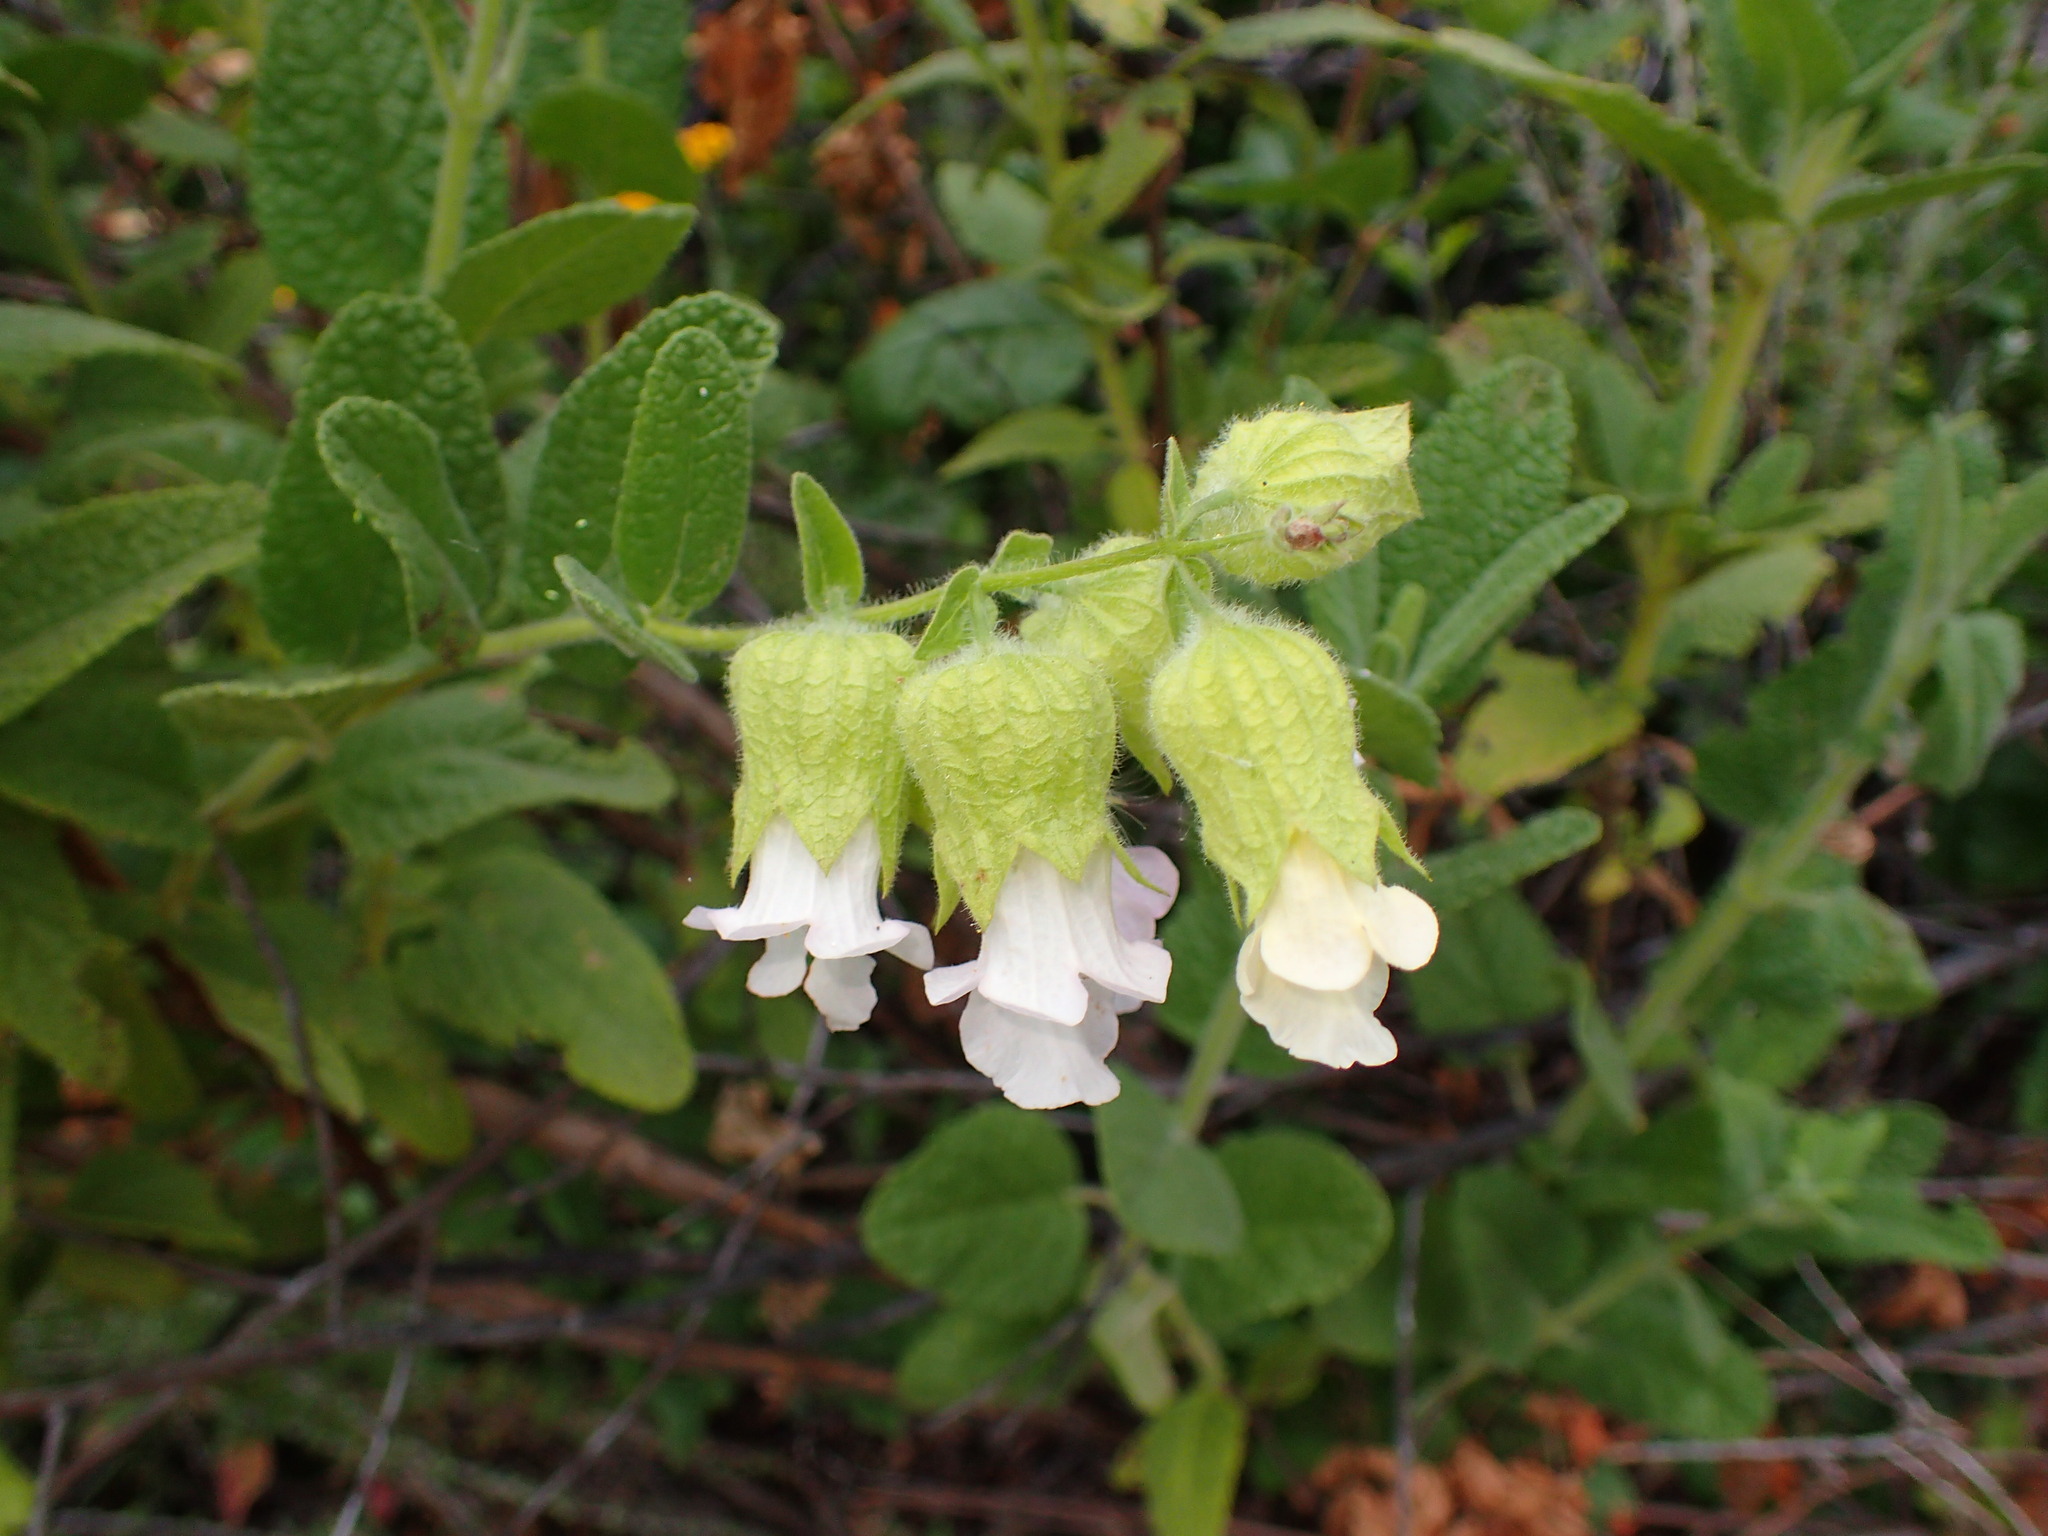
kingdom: Plantae
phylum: Tracheophyta
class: Magnoliopsida
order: Lamiales
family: Lamiaceae
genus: Lepechinia
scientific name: Lepechinia calycina
